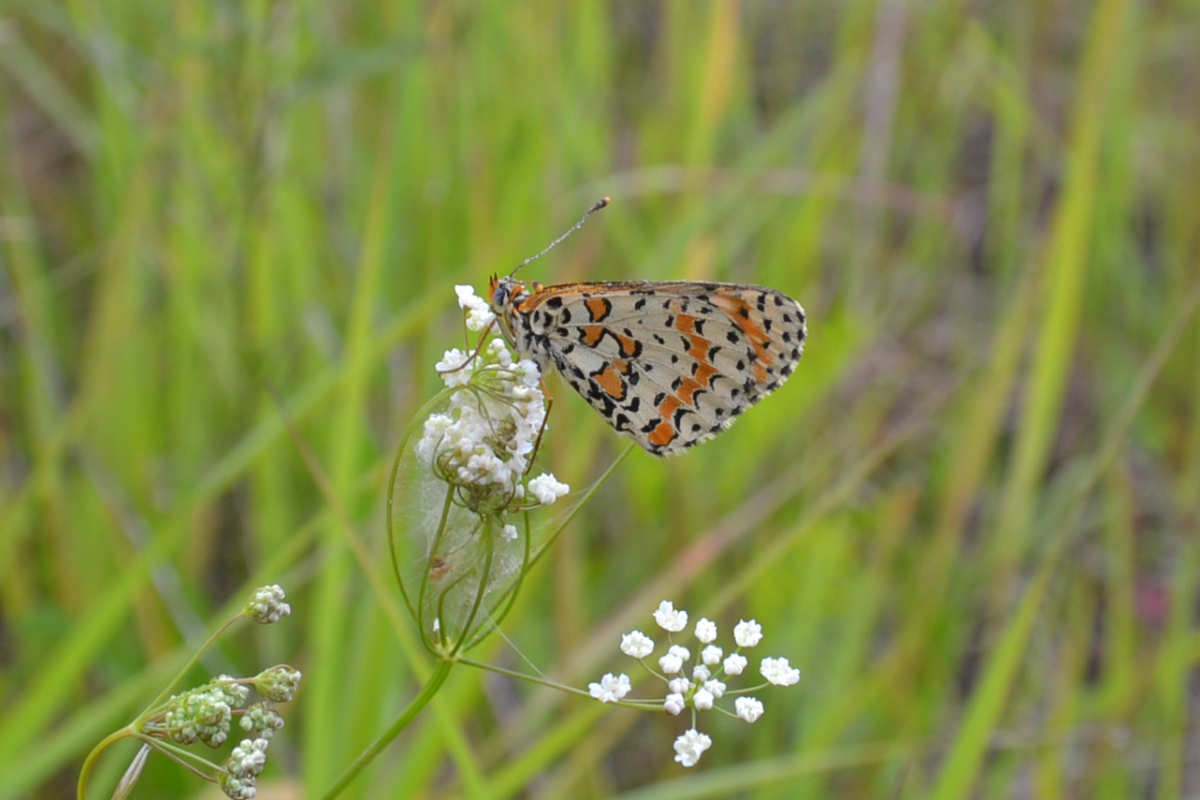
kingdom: Animalia
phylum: Arthropoda
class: Insecta
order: Lepidoptera
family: Nymphalidae
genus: Melitaea
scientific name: Melitaea didyma
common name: Spotted fritillary
